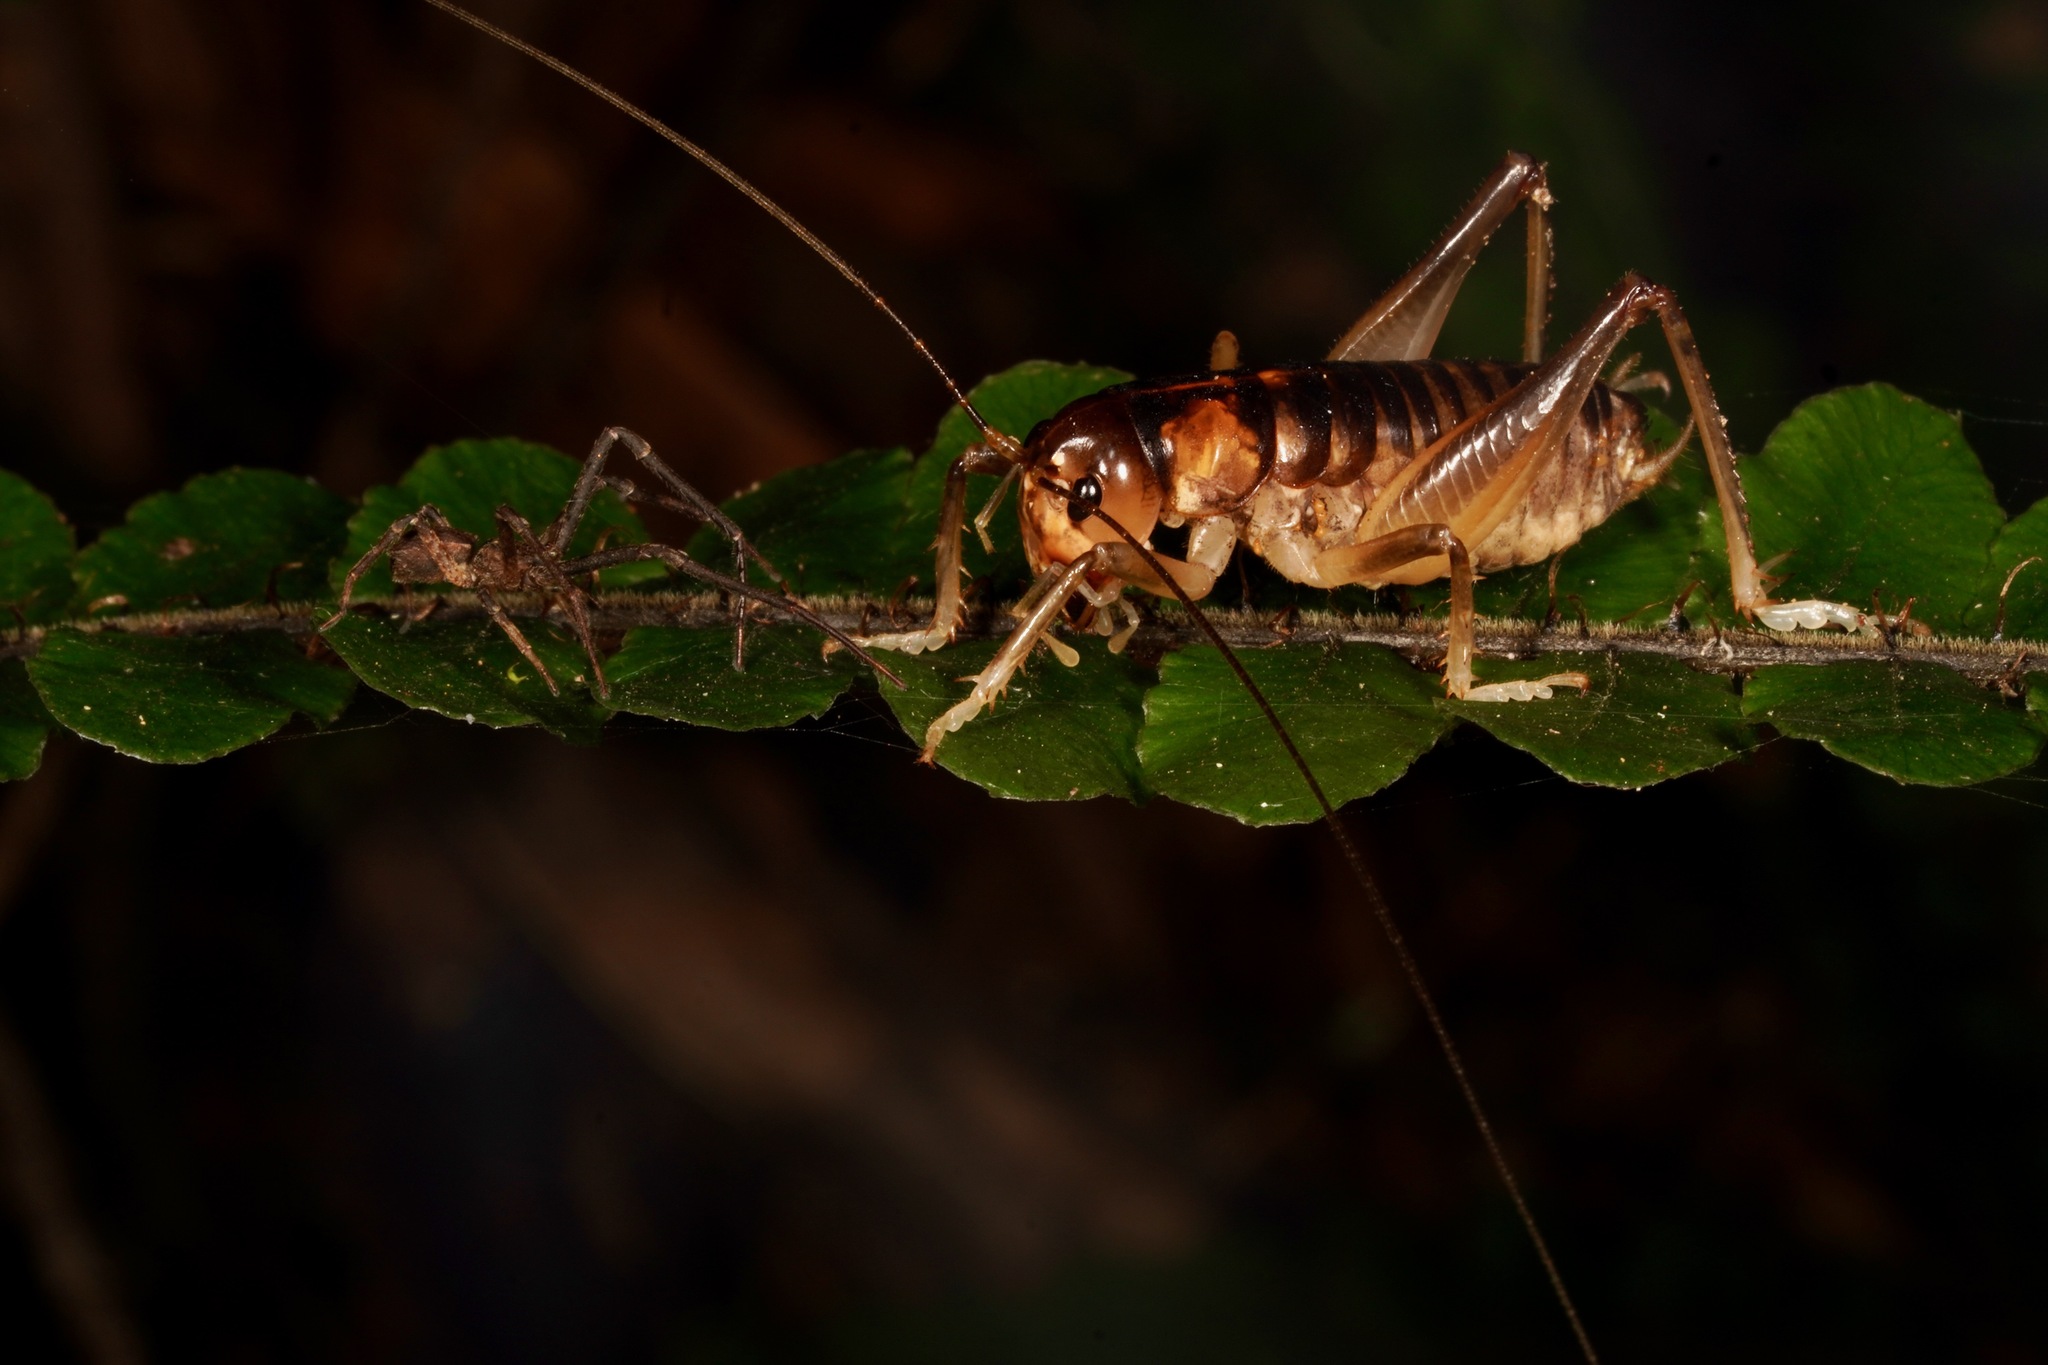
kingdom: Animalia
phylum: Arthropoda
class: Insecta
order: Orthoptera
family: Anostostomatidae
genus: Hemiandrus
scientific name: Hemiandrus pallitarsis
